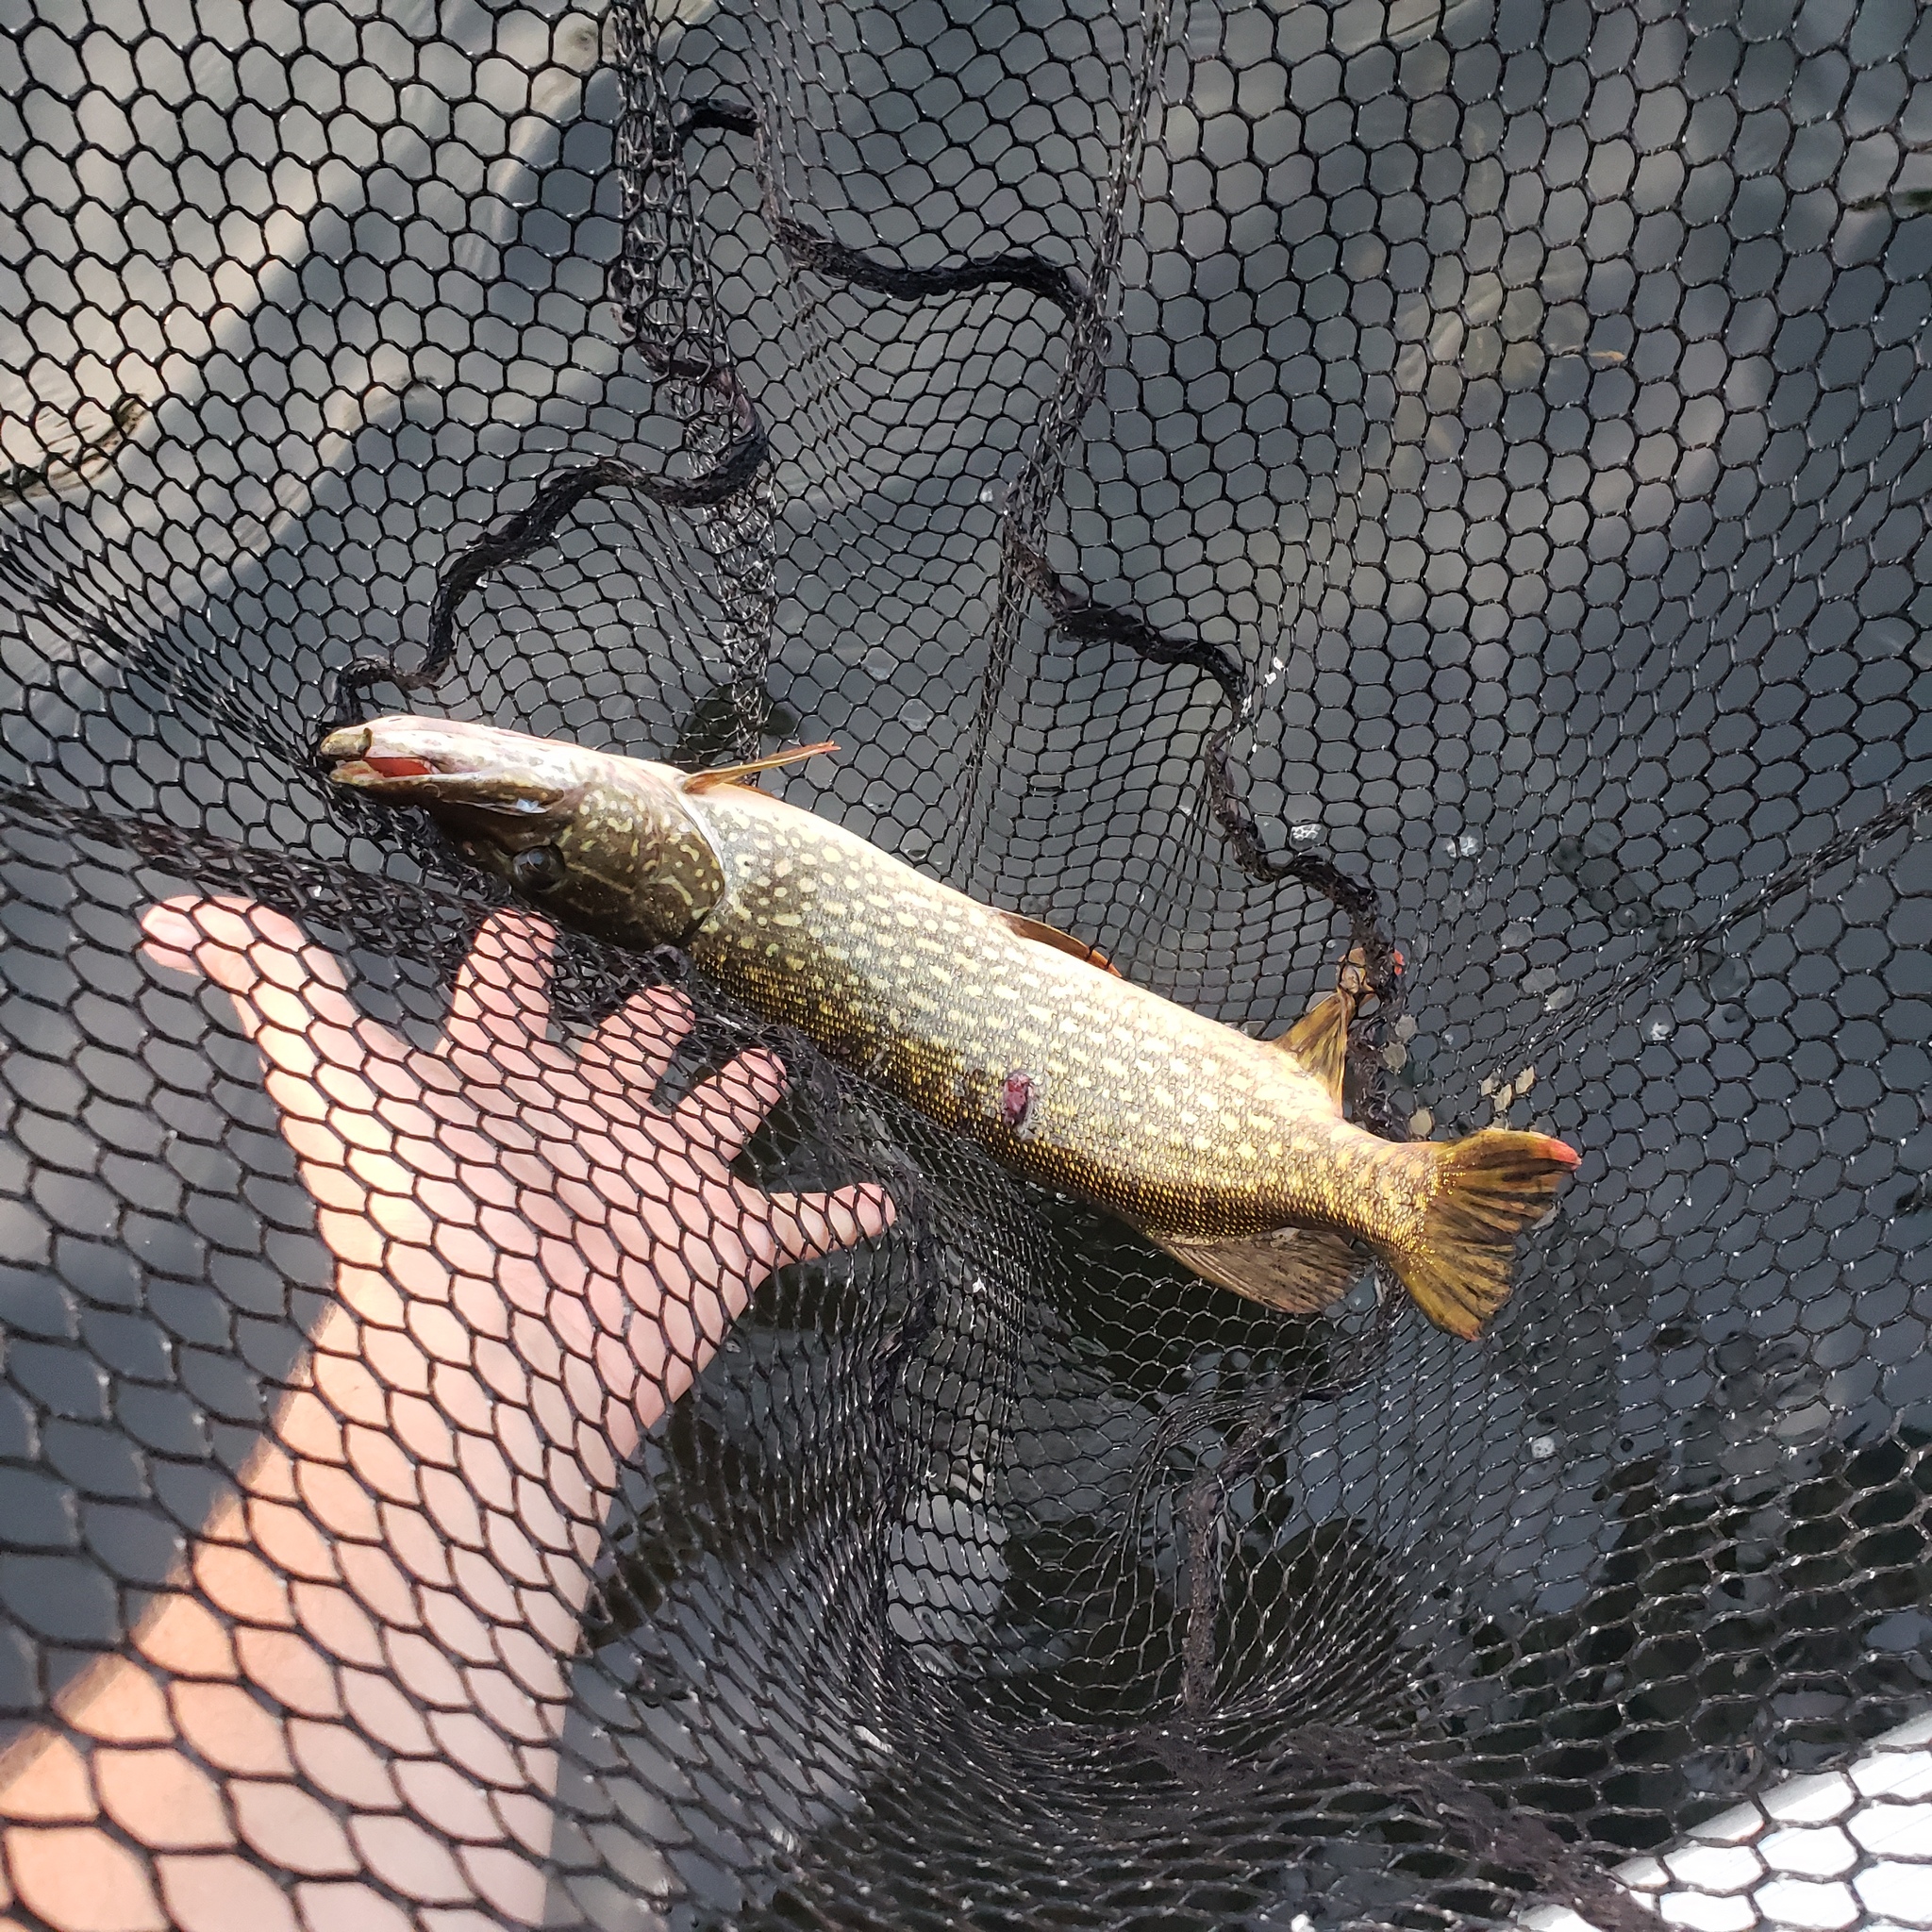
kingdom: Animalia
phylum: Chordata
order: Esociformes
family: Esocidae
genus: Esox
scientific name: Esox lucius
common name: Northern pike
